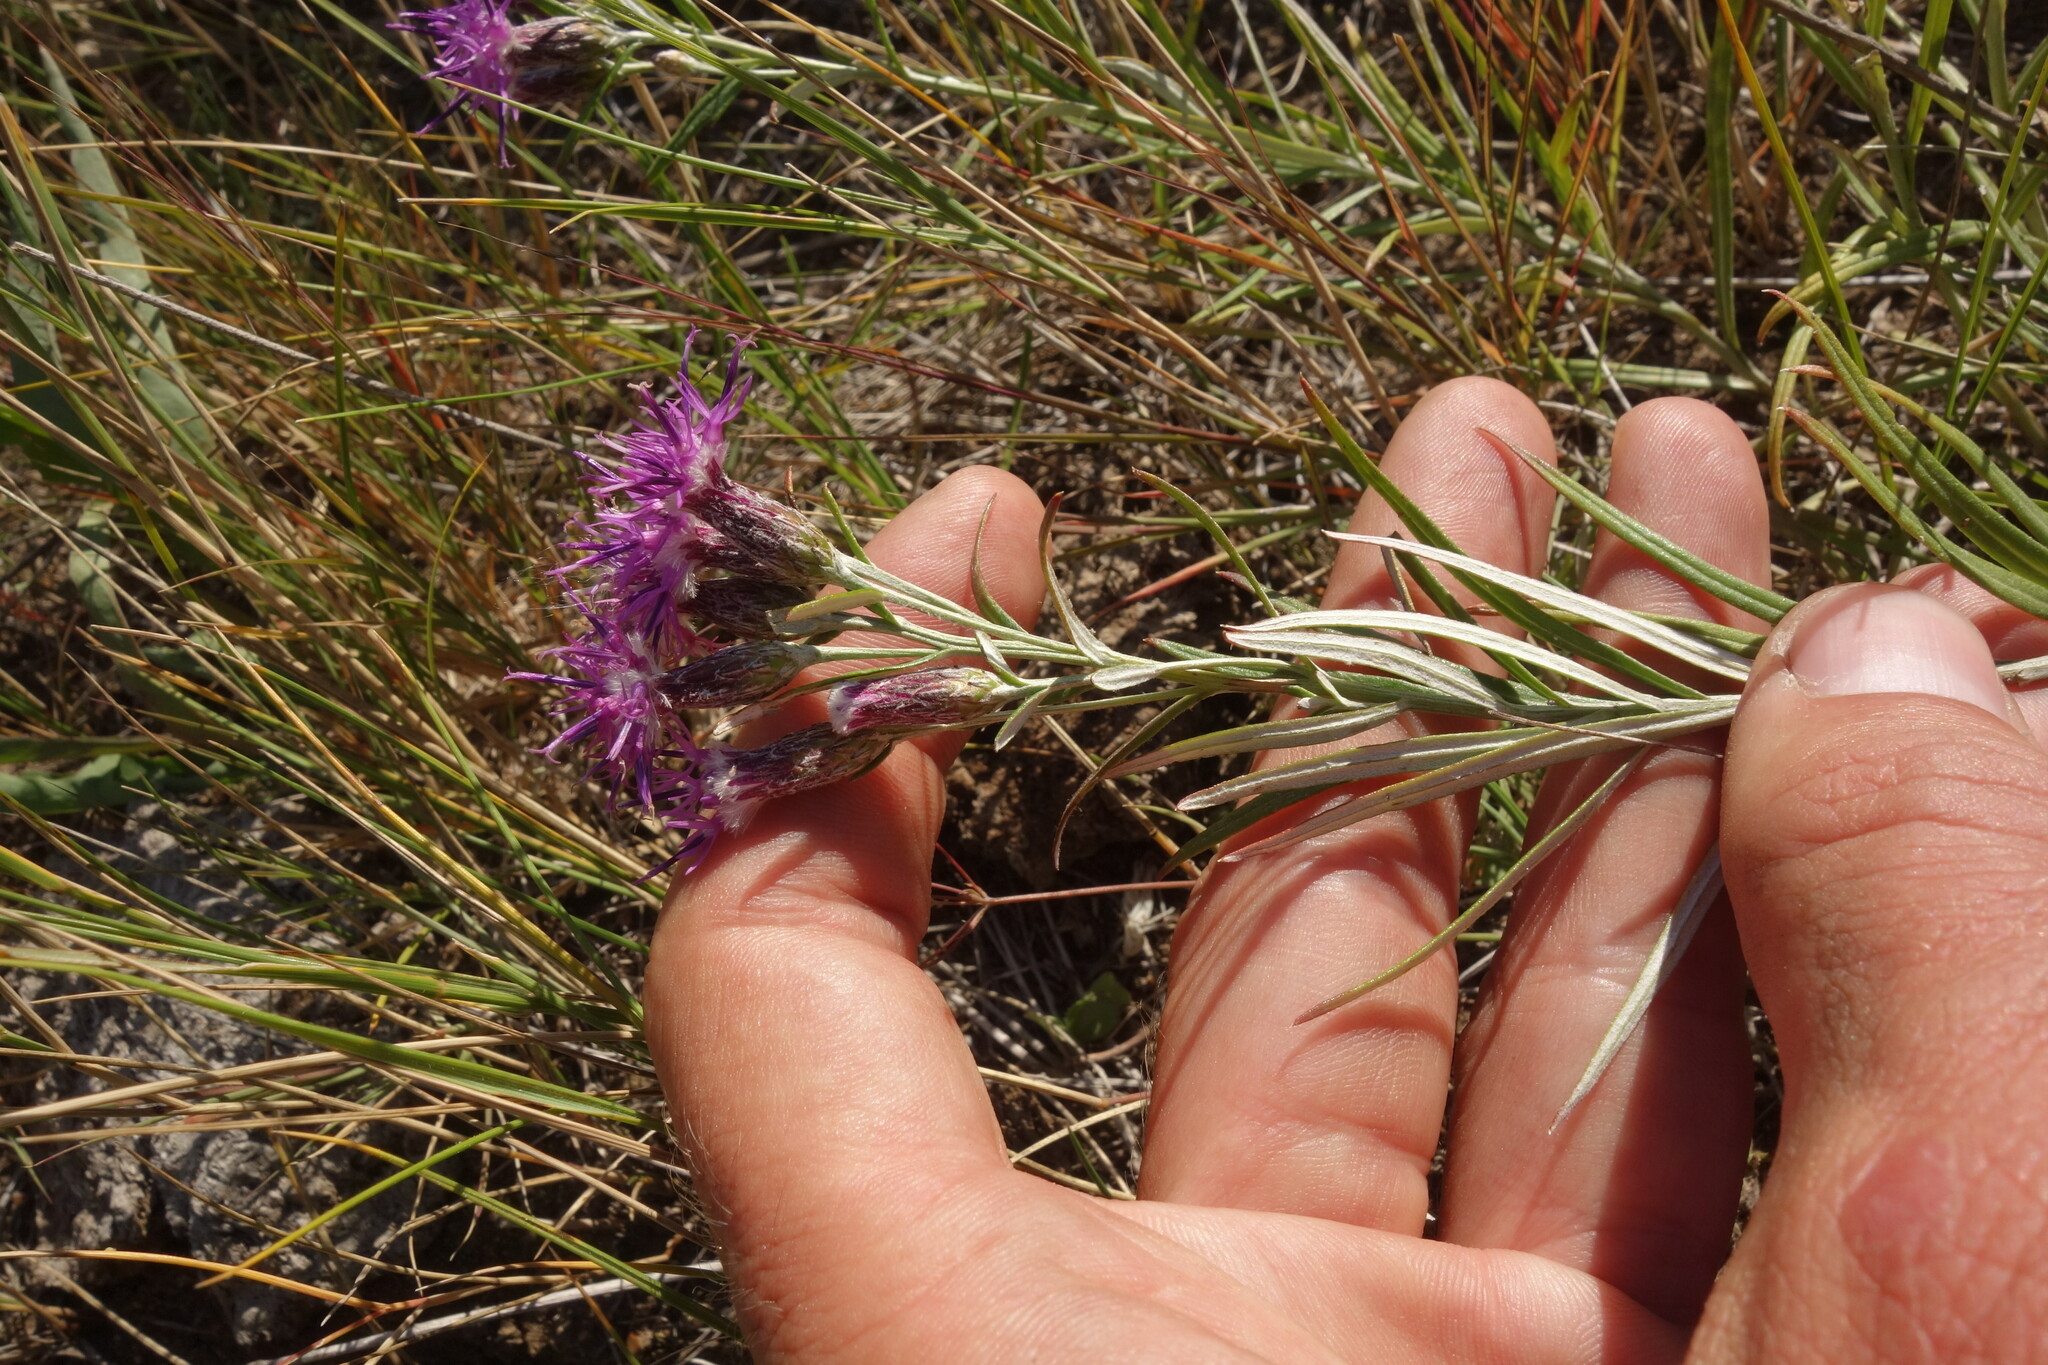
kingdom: Plantae
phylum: Tracheophyta
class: Magnoliopsida
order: Asterales
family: Asteraceae
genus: Saussurea
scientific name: Saussurea salicifolia
